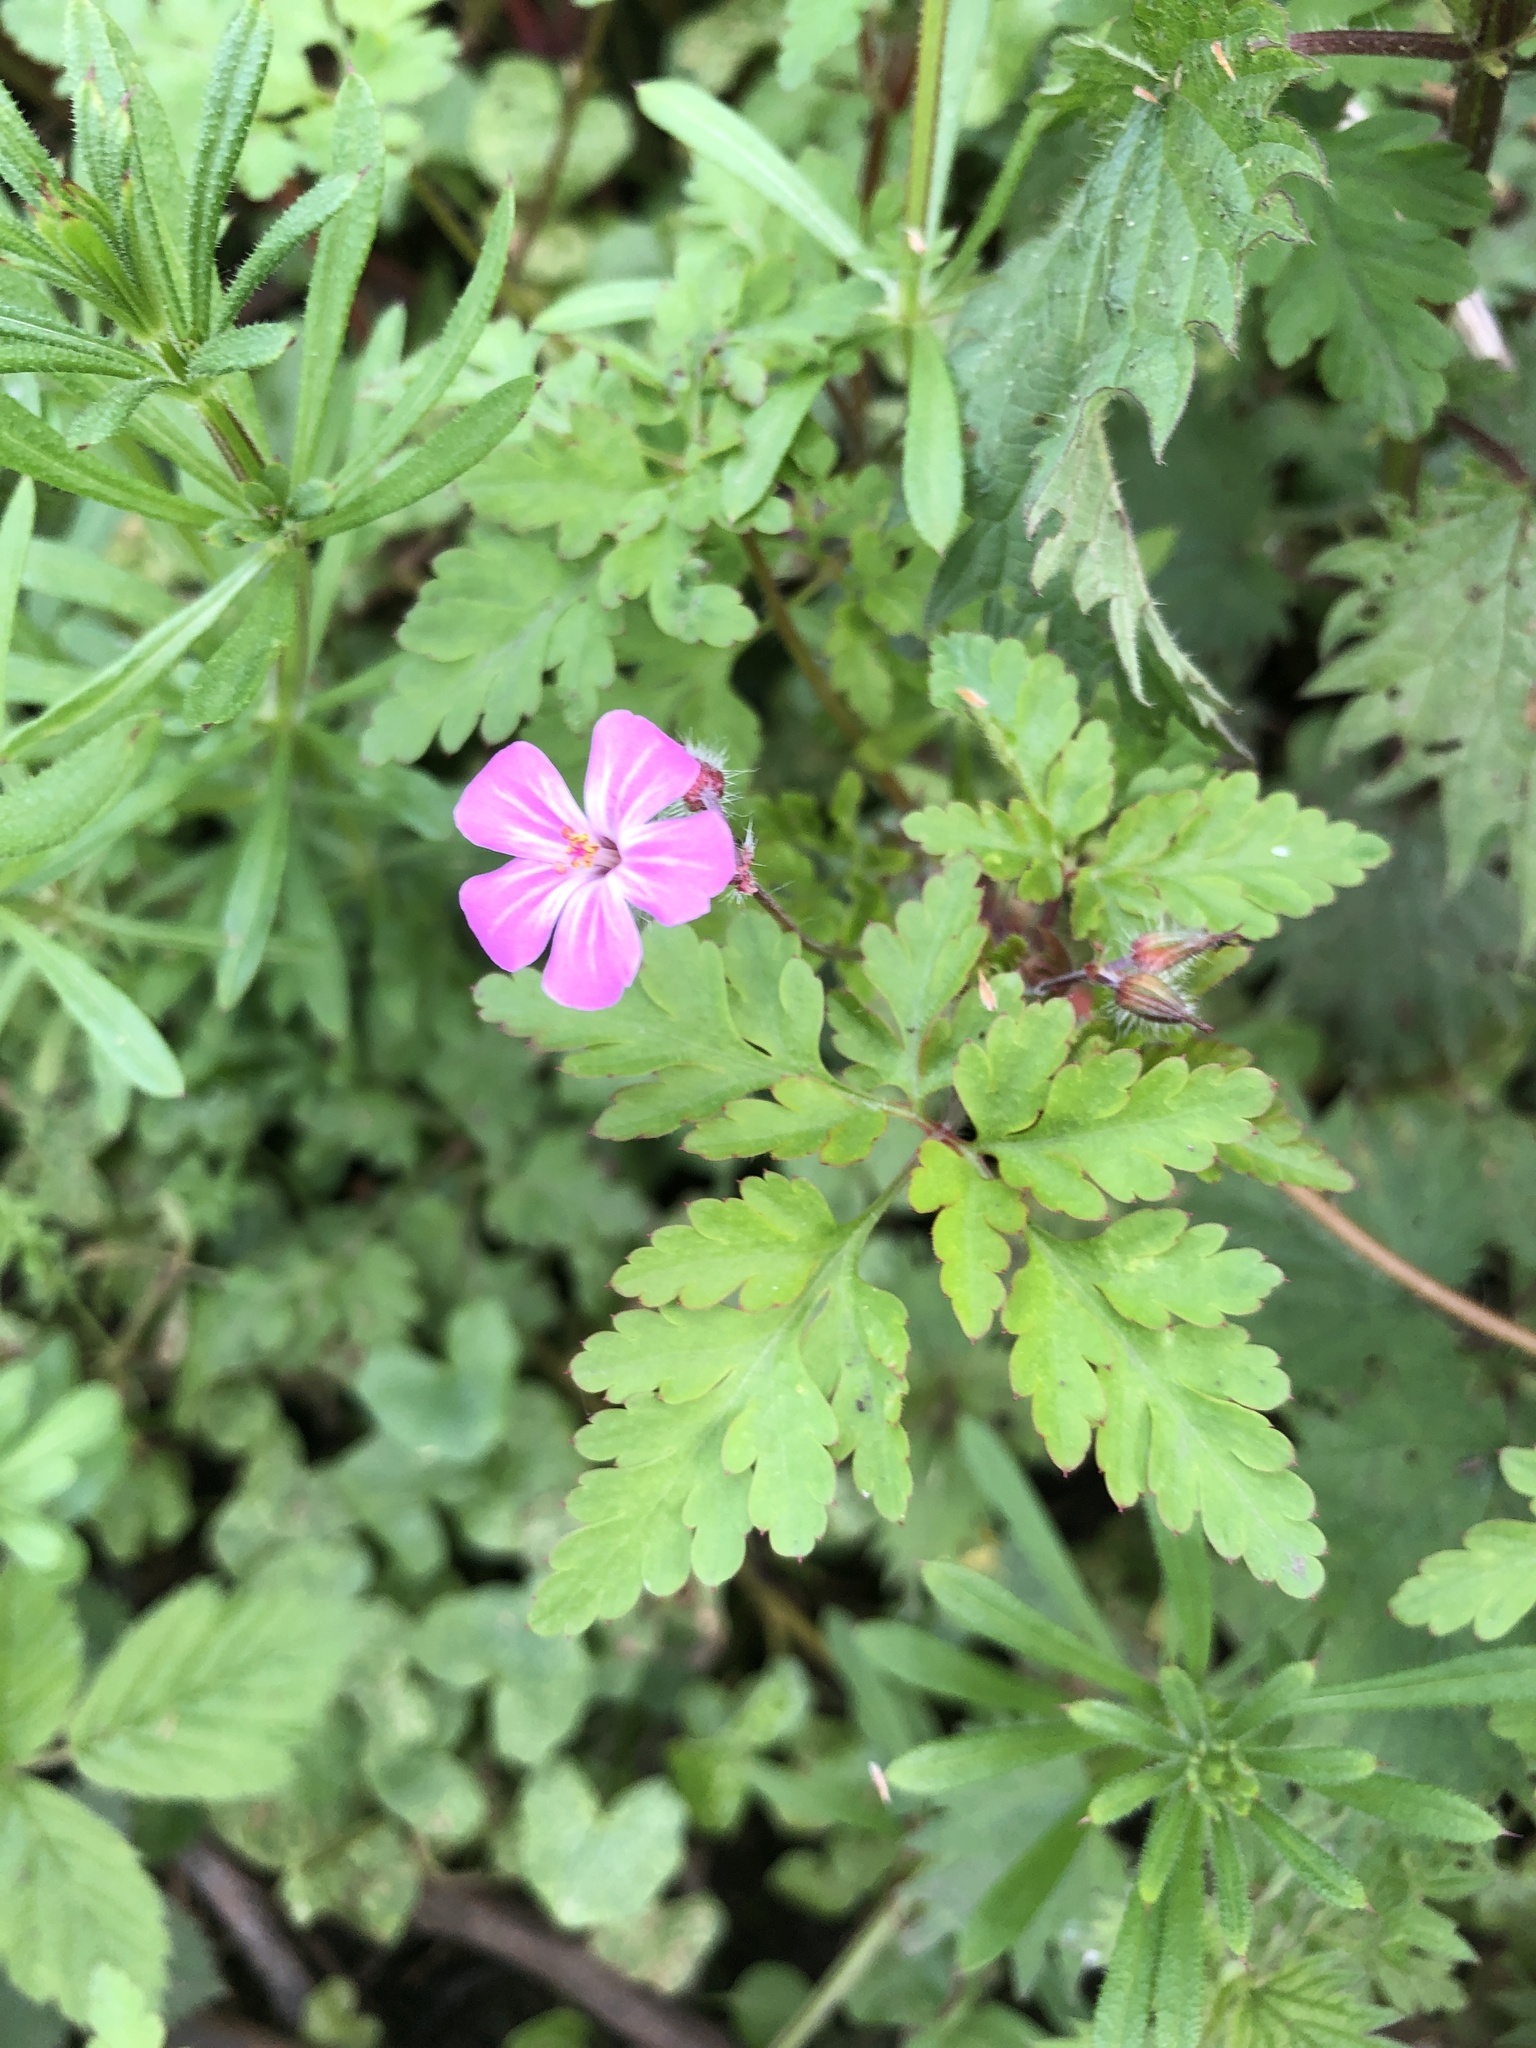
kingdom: Plantae
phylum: Tracheophyta
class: Magnoliopsida
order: Geraniales
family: Geraniaceae
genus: Geranium
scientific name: Geranium robertianum
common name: Herb-robert
